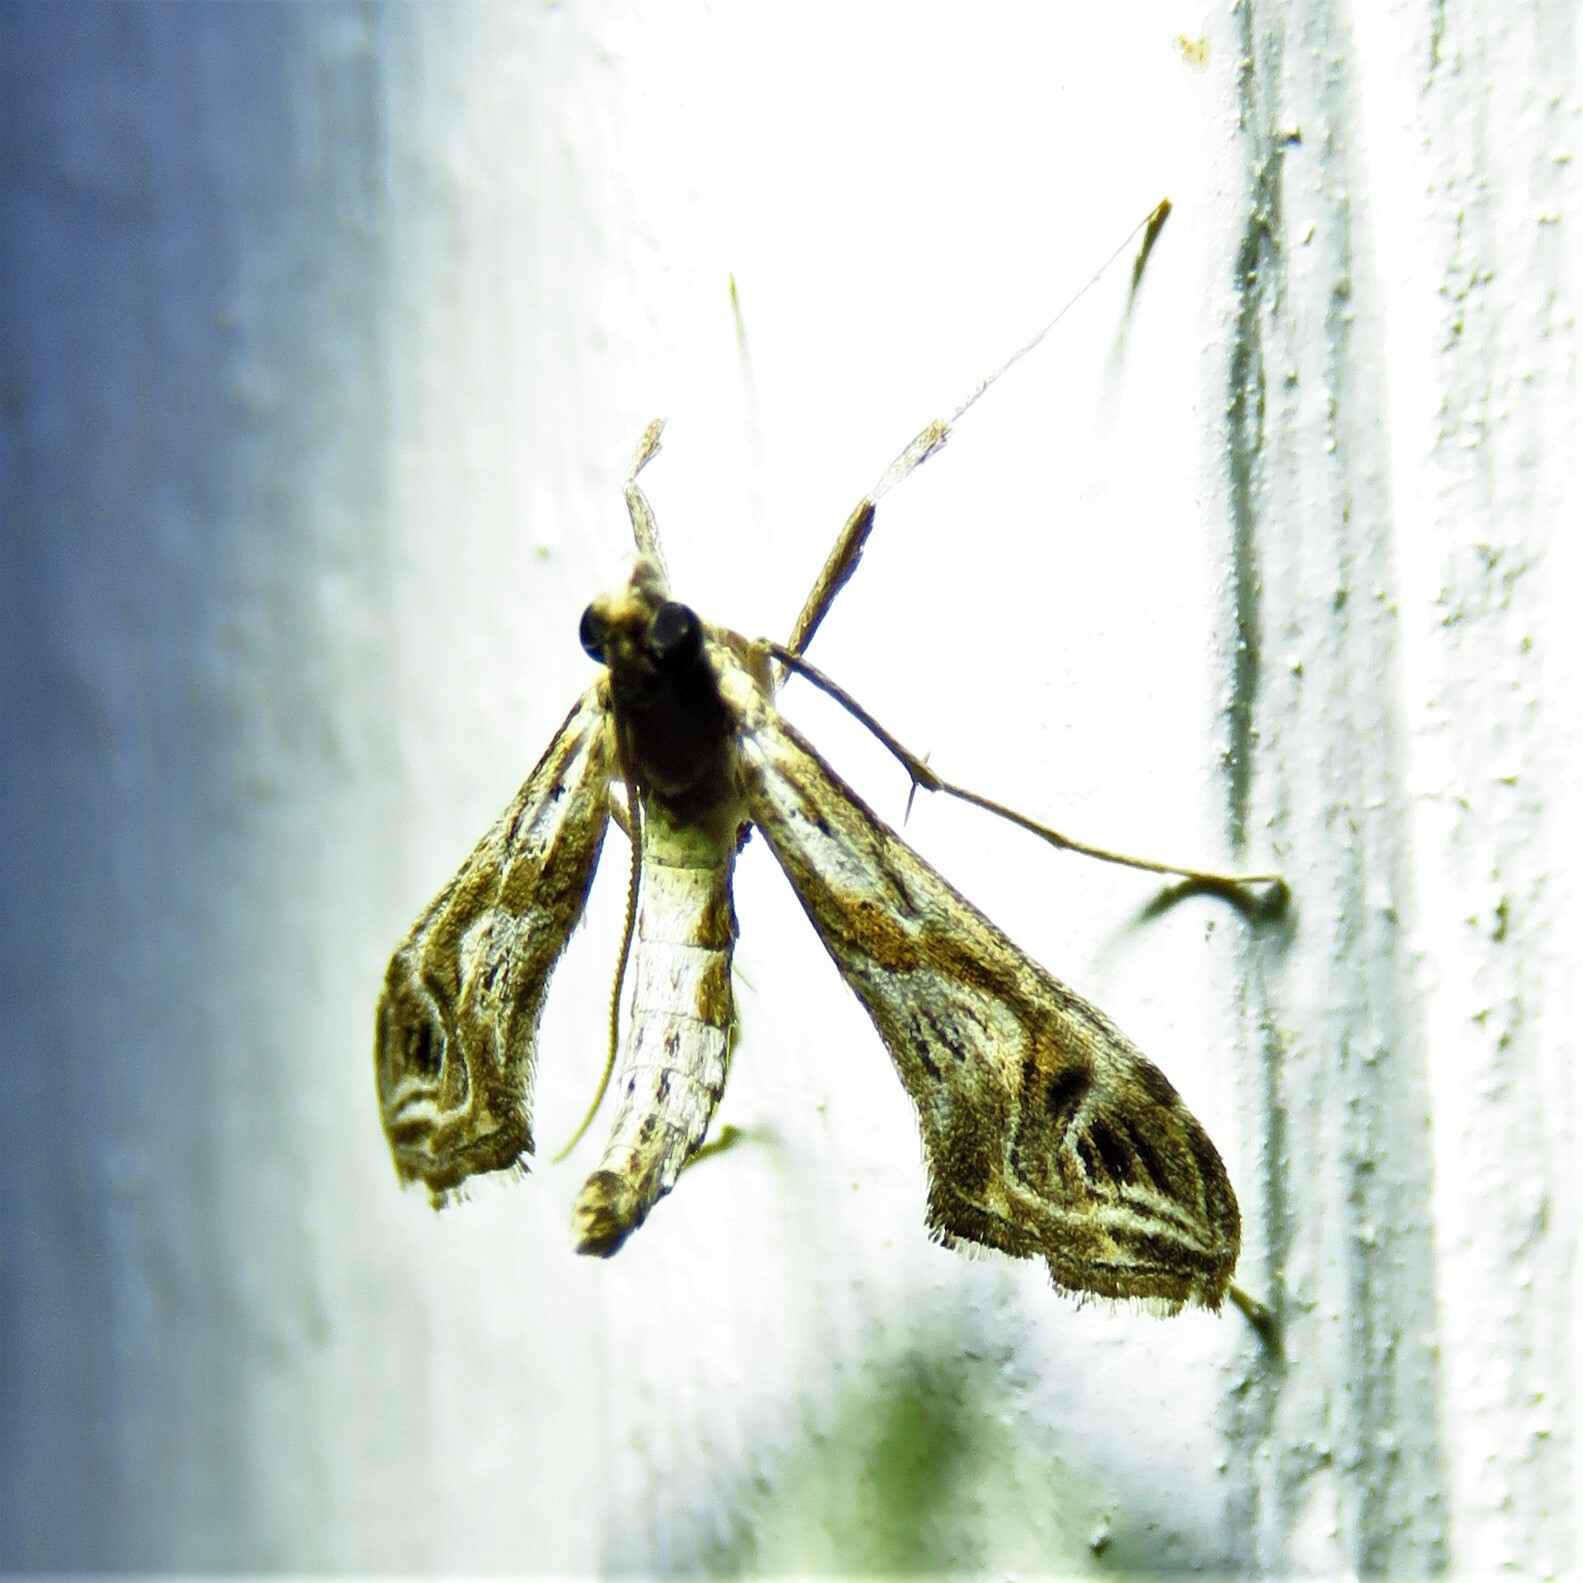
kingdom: Animalia
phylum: Arthropoda
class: Insecta
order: Lepidoptera
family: Crambidae
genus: Lineodes
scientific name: Lineodes integra
